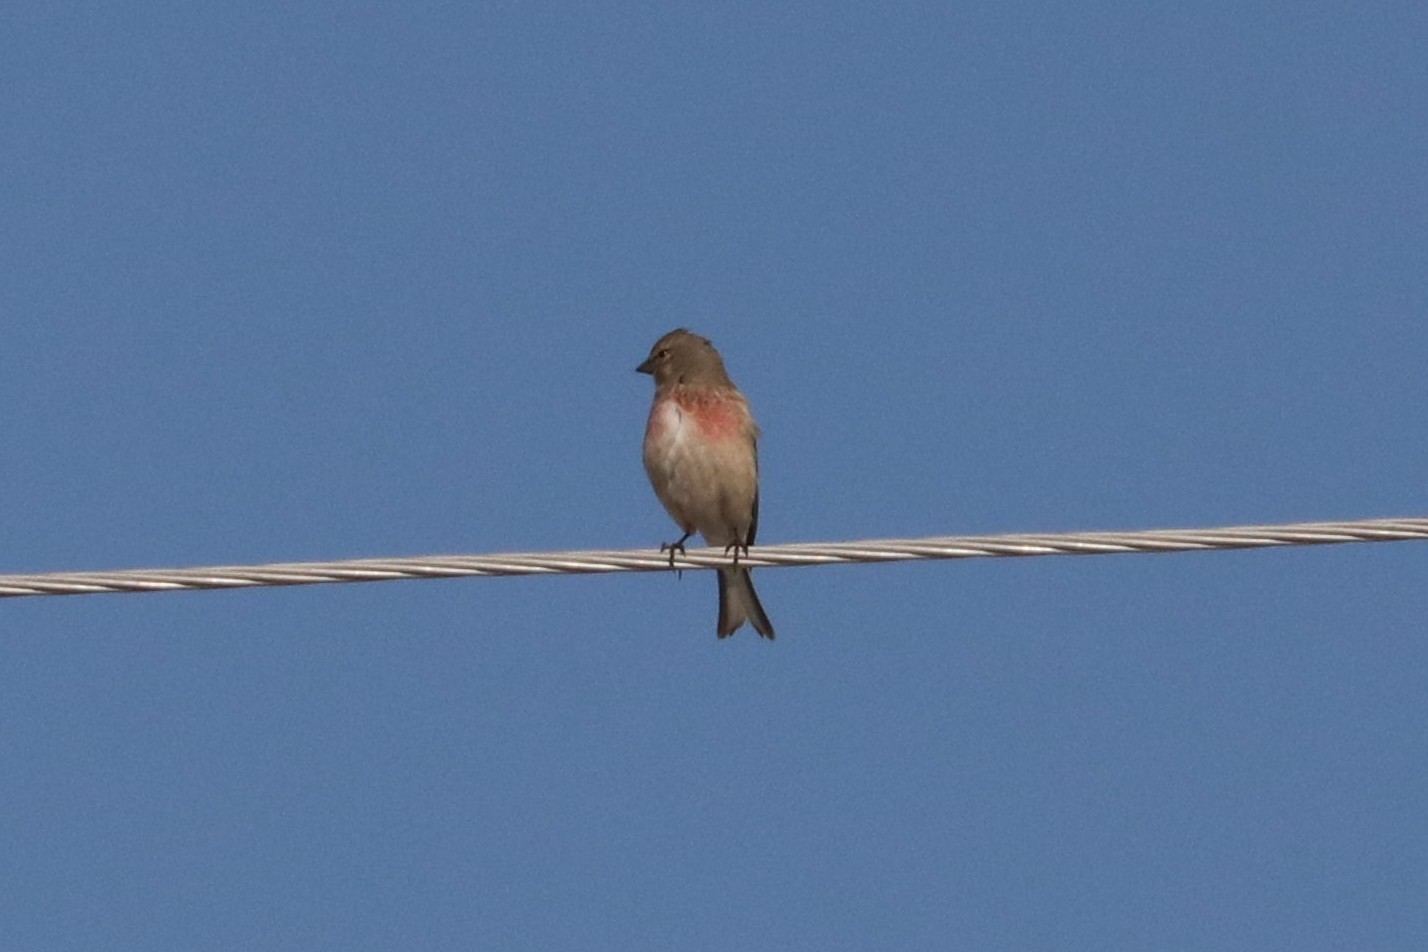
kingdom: Animalia
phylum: Chordata
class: Aves
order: Passeriformes
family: Fringillidae
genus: Linaria
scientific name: Linaria cannabina
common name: Common linnet
